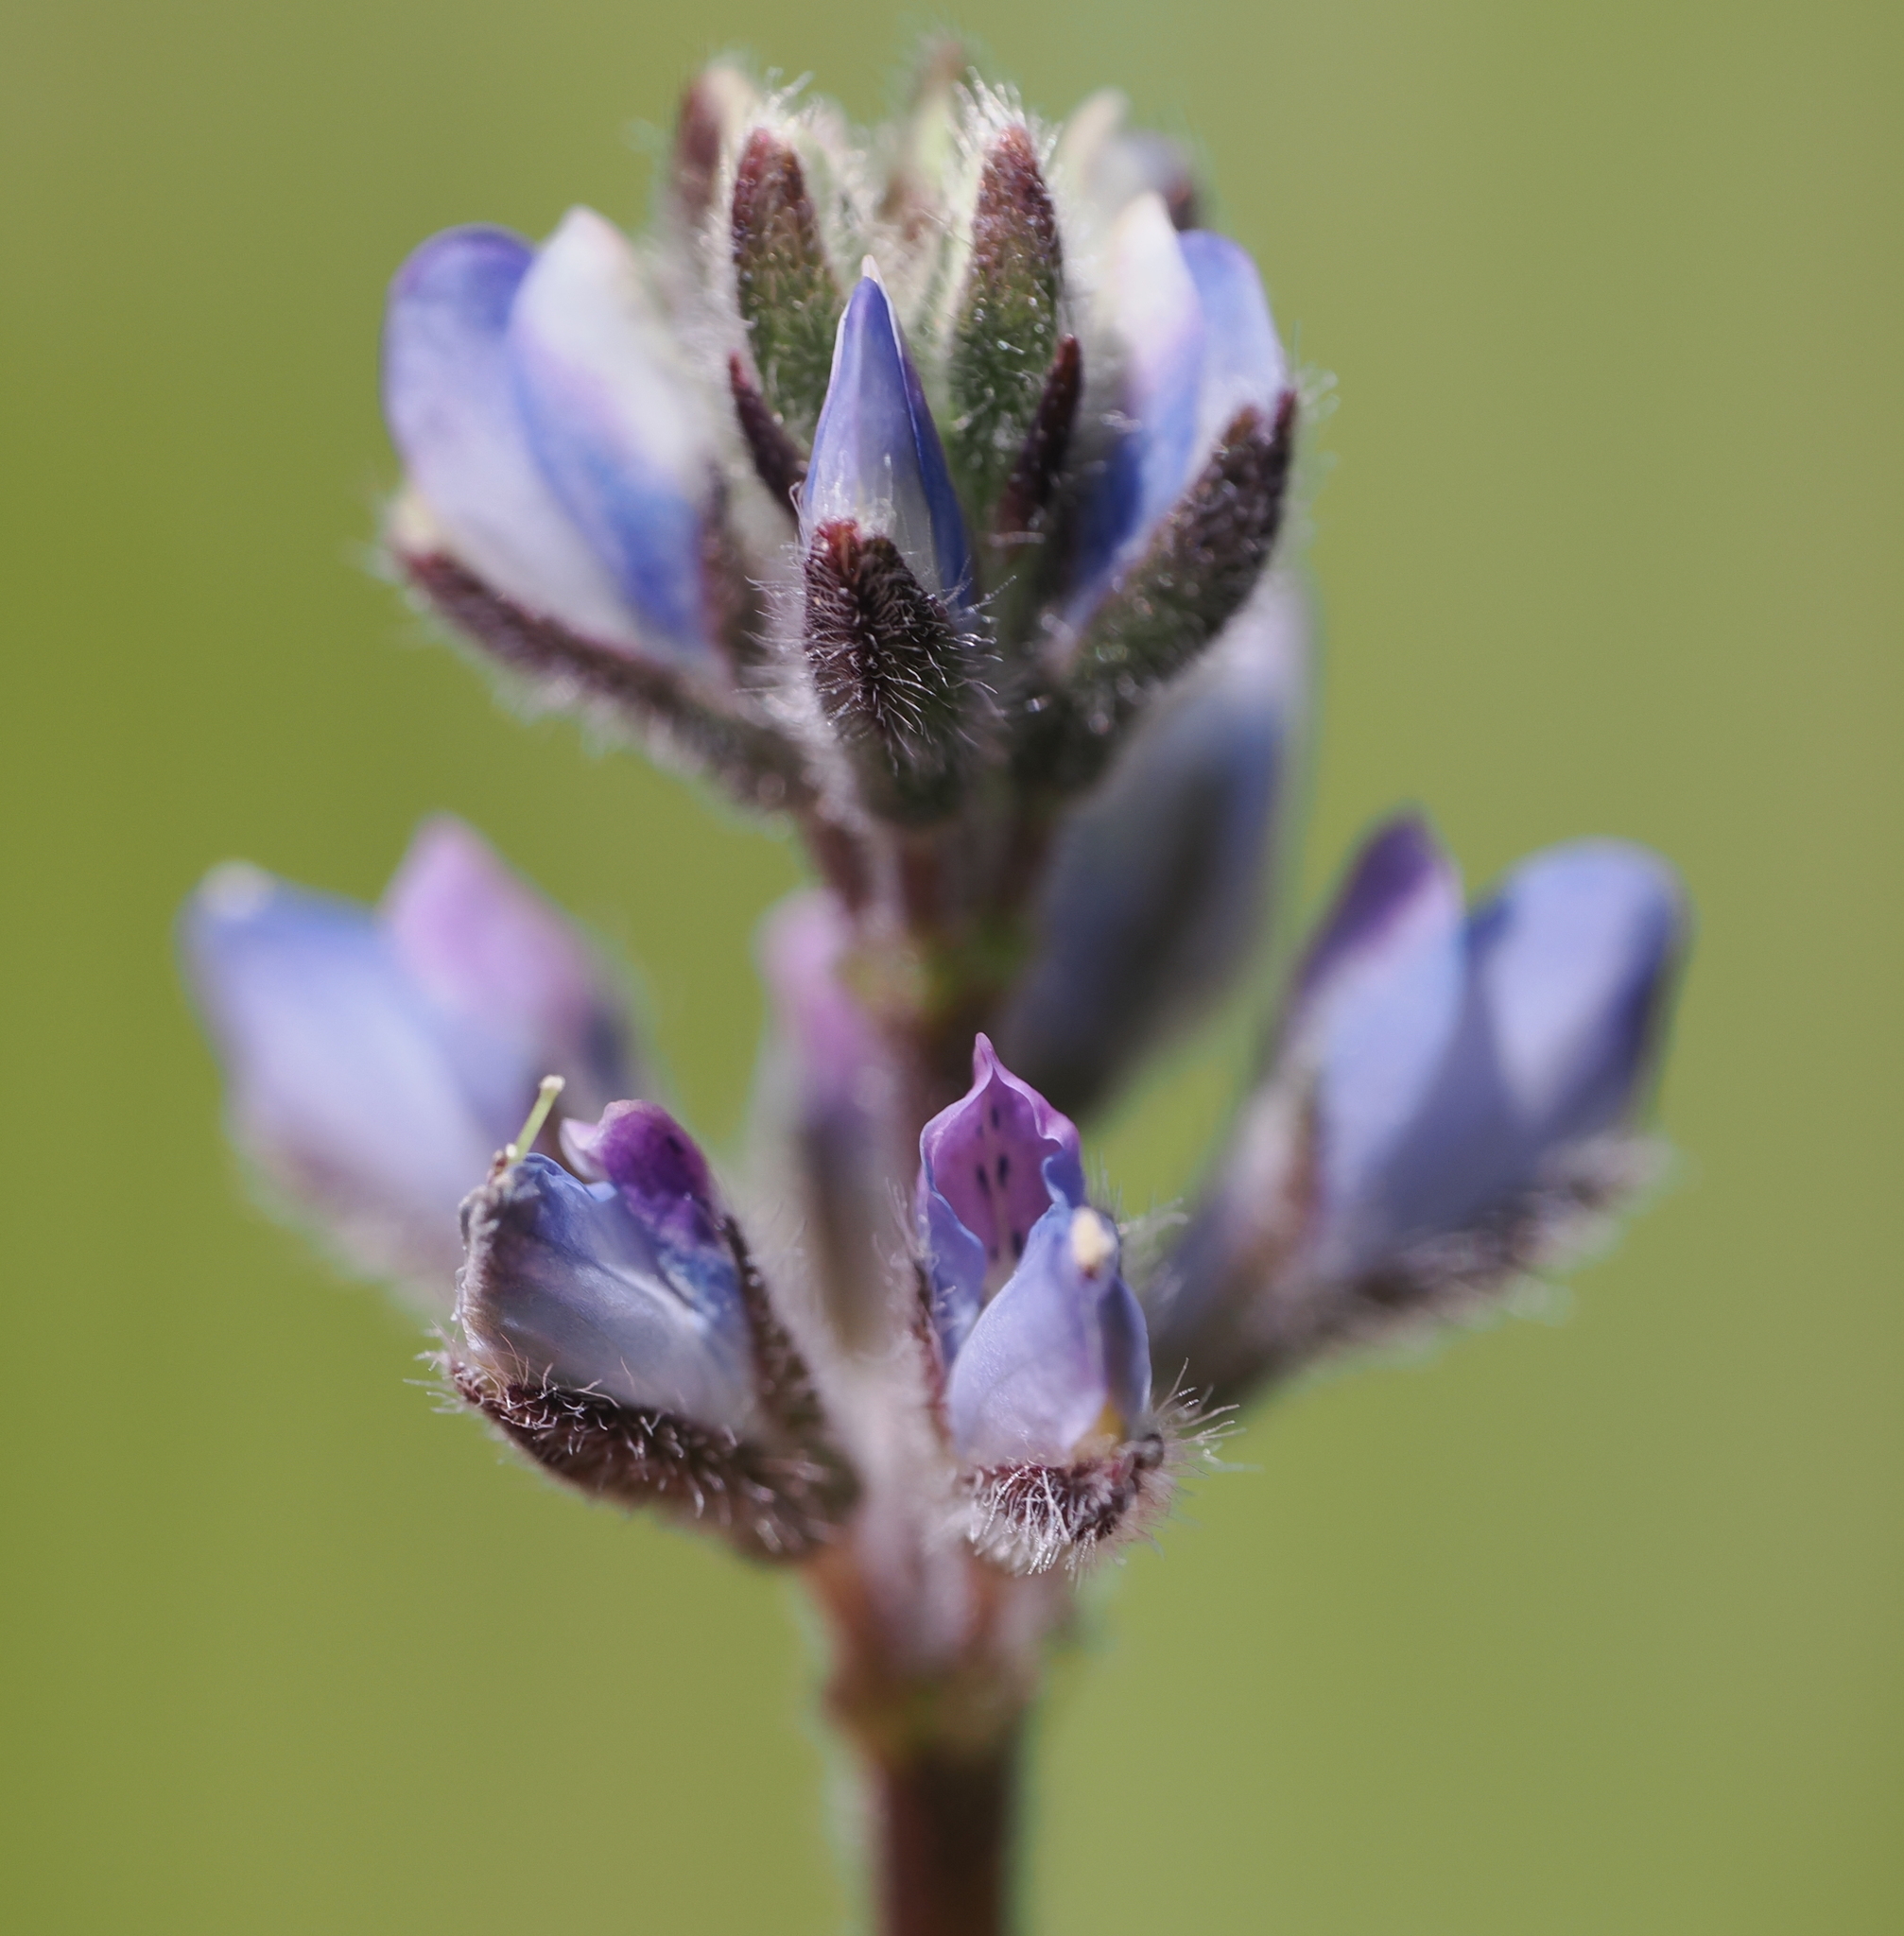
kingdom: Plantae
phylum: Tracheophyta
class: Magnoliopsida
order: Fabales
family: Fabaceae
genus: Lupinus
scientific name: Lupinus bicolor
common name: Miniature lupine
